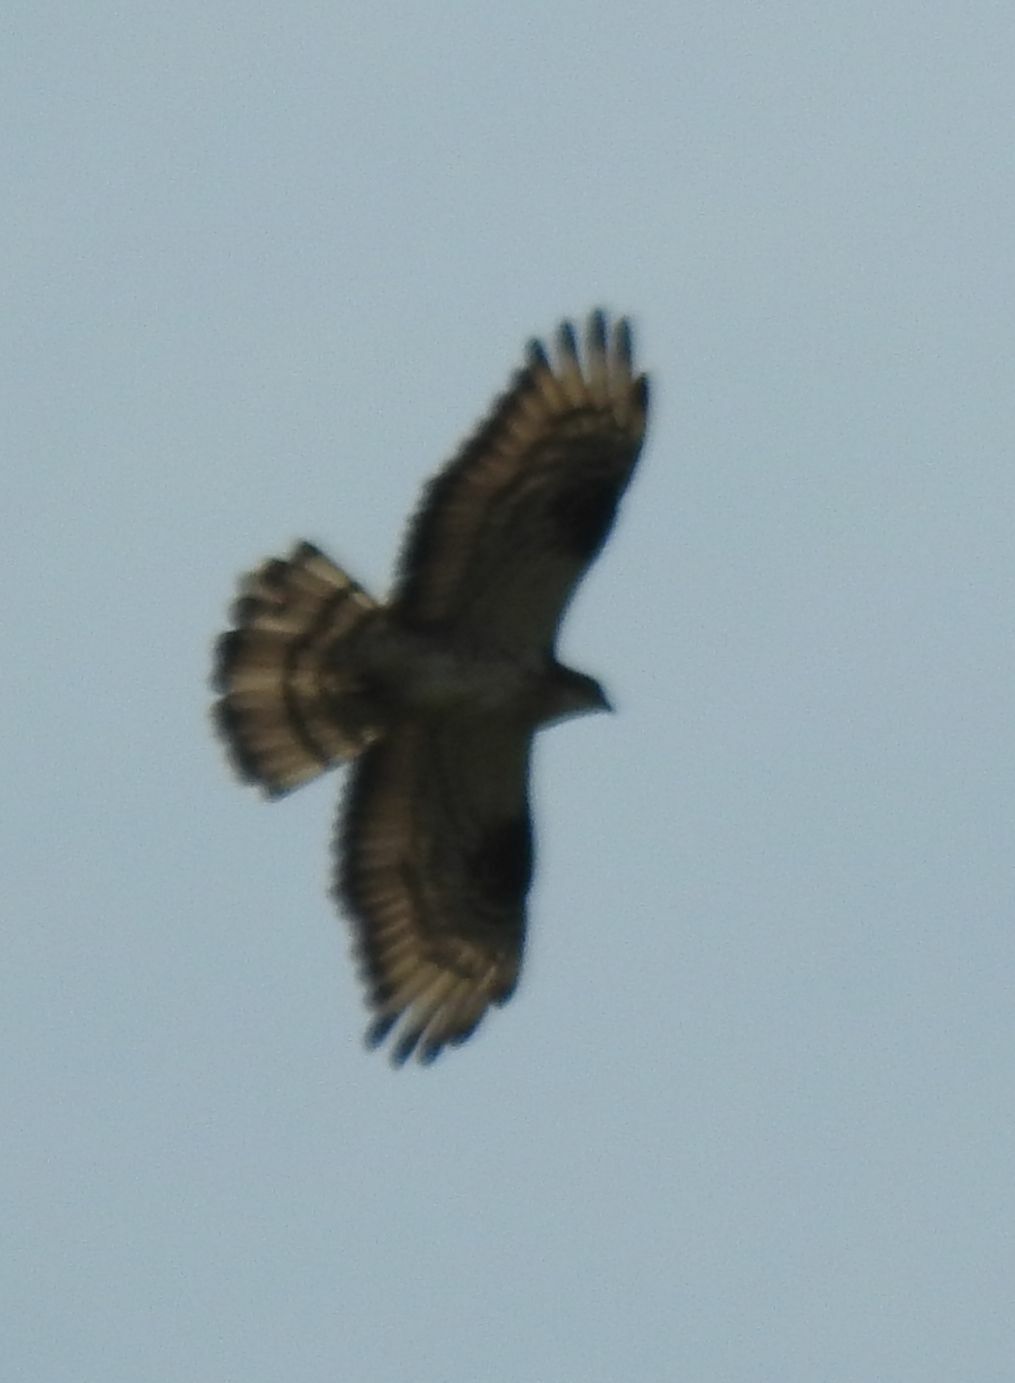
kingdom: Animalia
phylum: Chordata
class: Aves
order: Accipitriformes
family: Accipitridae
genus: Pernis
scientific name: Pernis apivorus
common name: European honey buzzard
